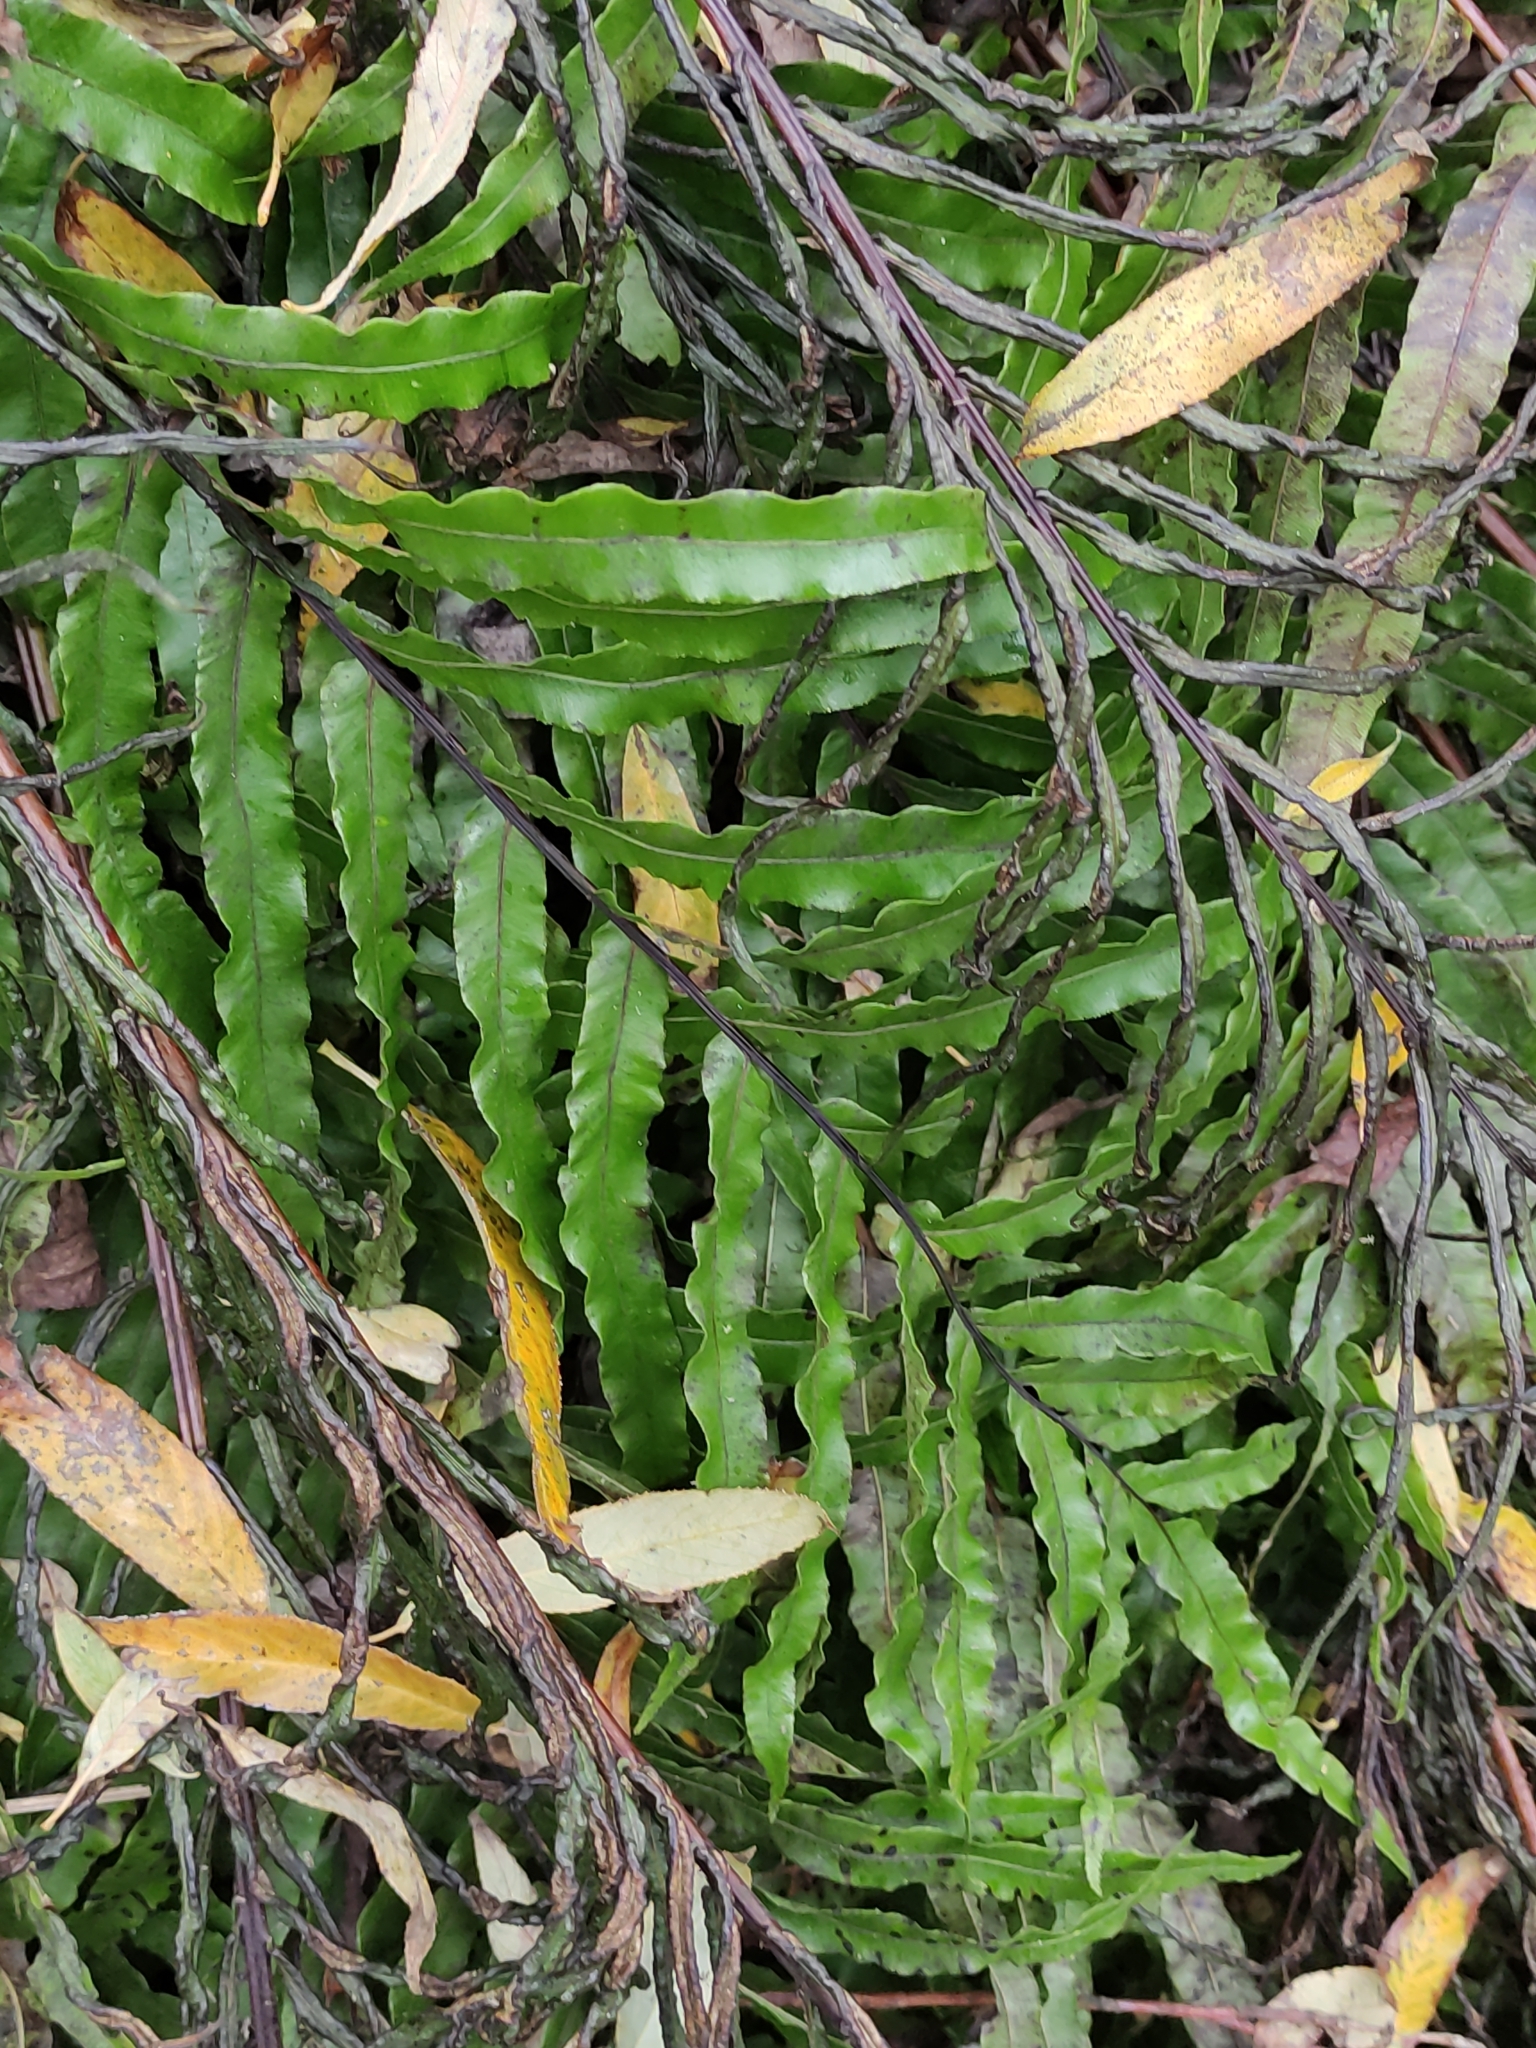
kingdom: Plantae
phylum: Tracheophyta
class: Polypodiopsida
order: Polypodiales
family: Blechnaceae
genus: Parablechnum
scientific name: Parablechnum novae-zelandiae
